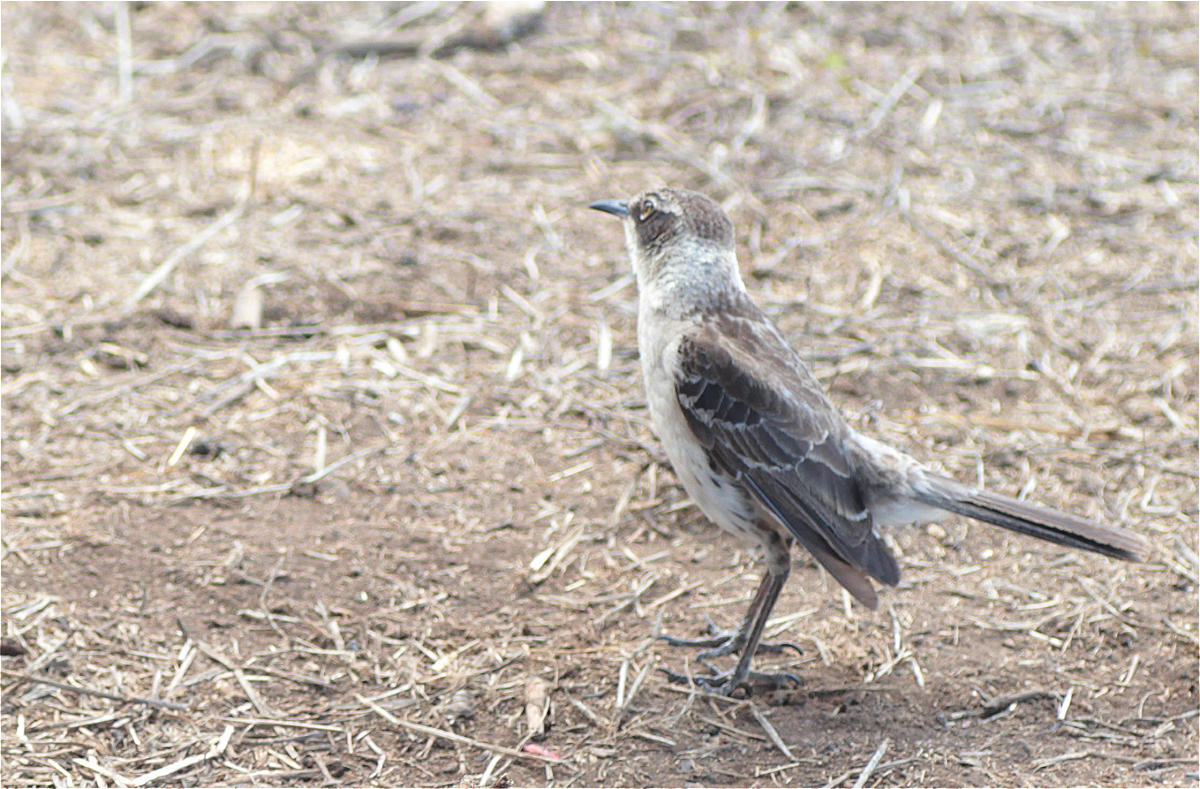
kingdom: Animalia
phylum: Chordata
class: Aves
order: Passeriformes
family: Mimidae
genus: Mimus
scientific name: Mimus parvulus
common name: Galapagos mockingbird
